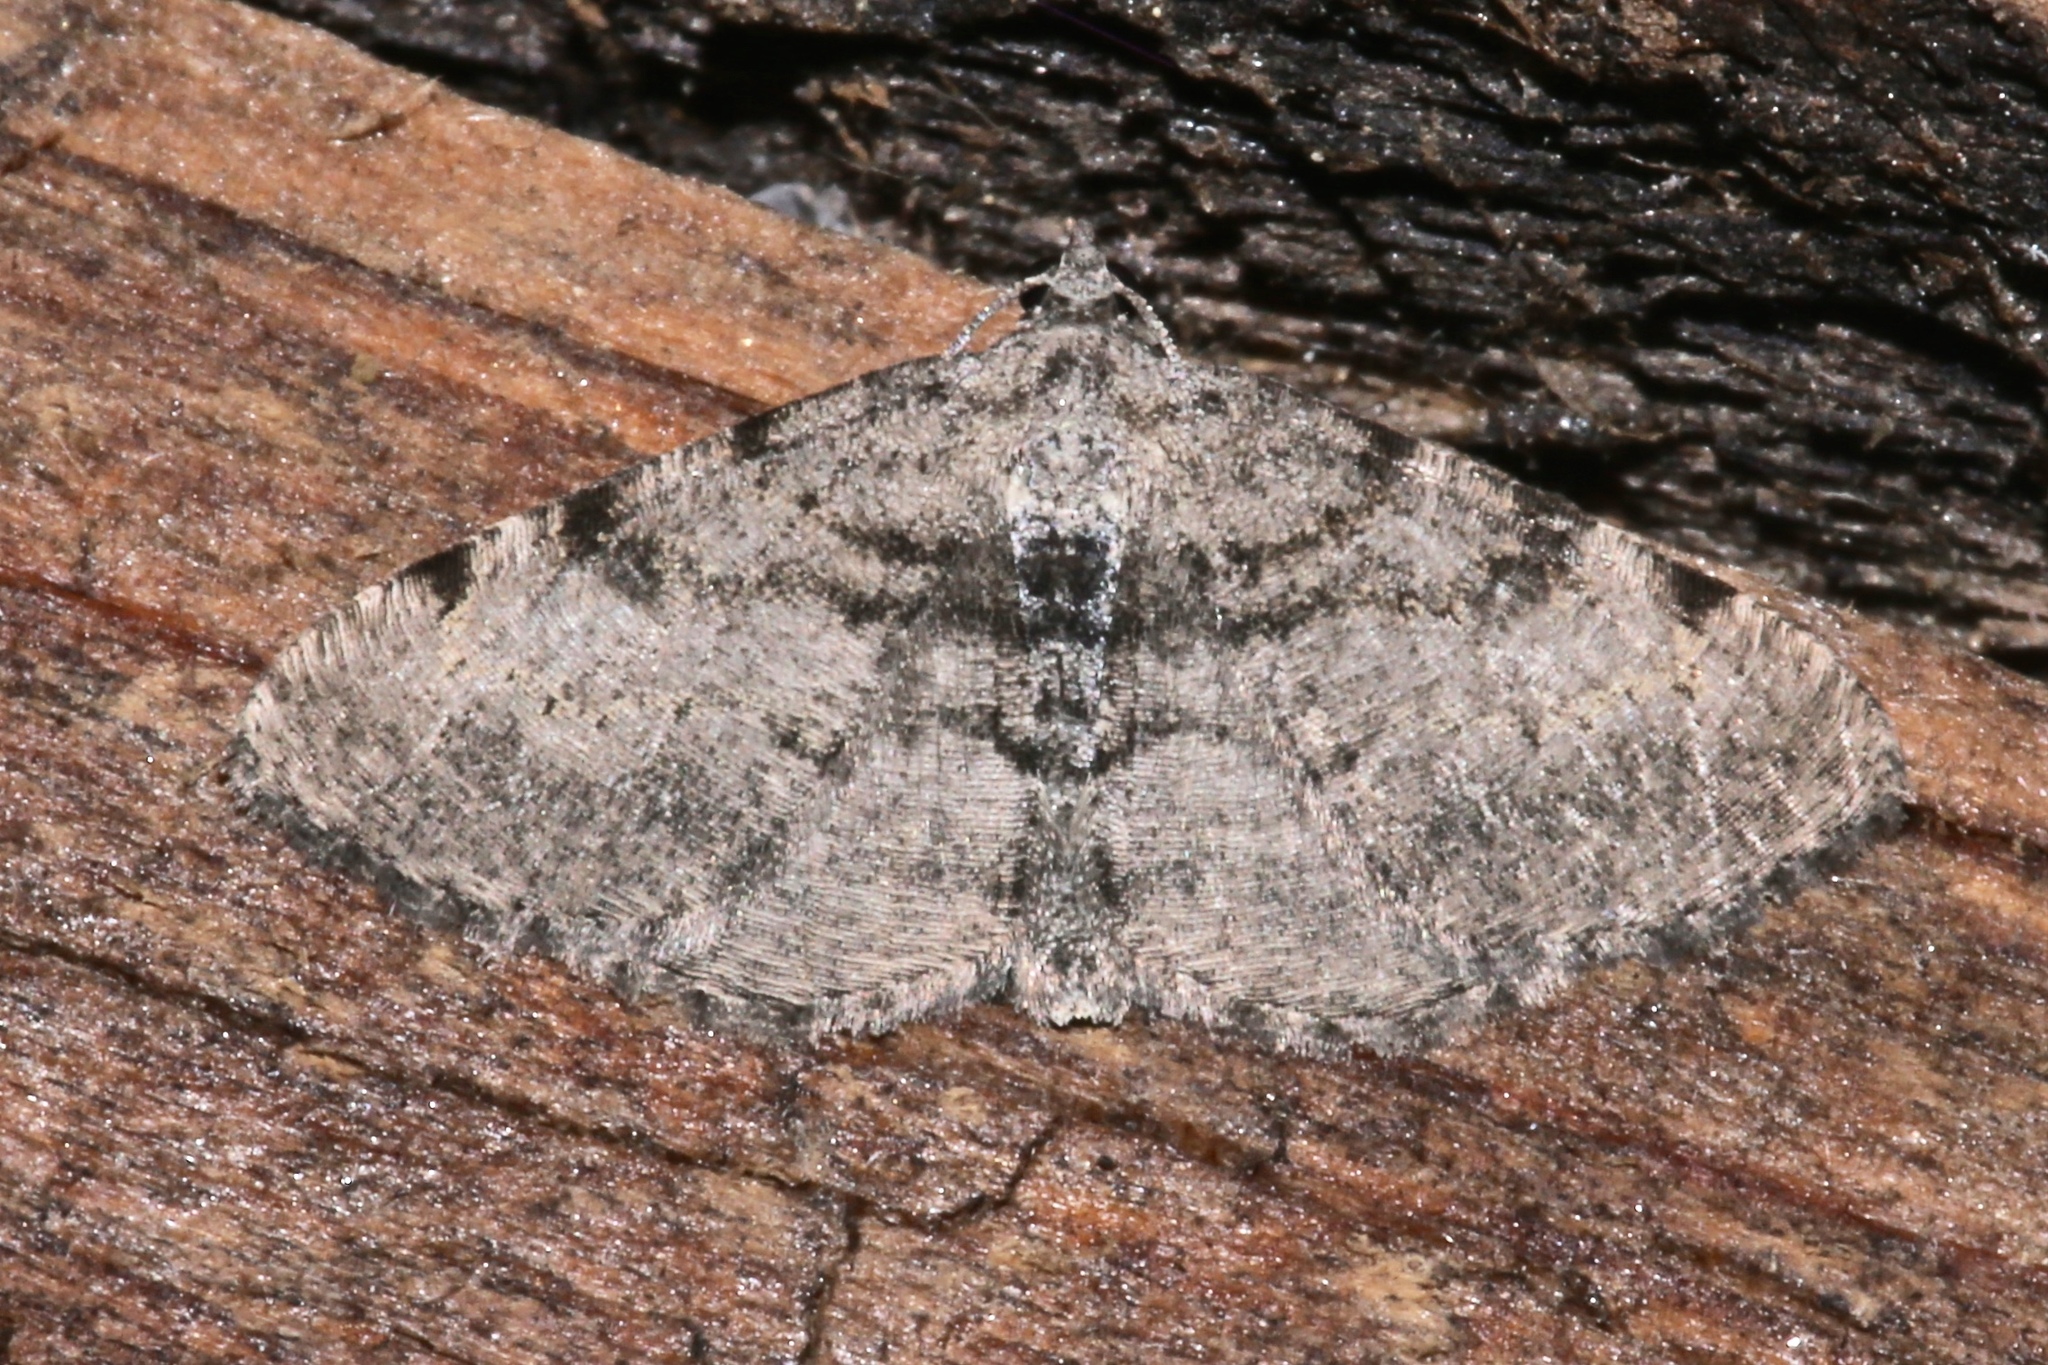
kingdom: Animalia
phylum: Arthropoda
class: Insecta
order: Lepidoptera
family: Geometridae
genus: Digrammia
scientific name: Digrammia gnophosaria
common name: Hollow-spotted angle
